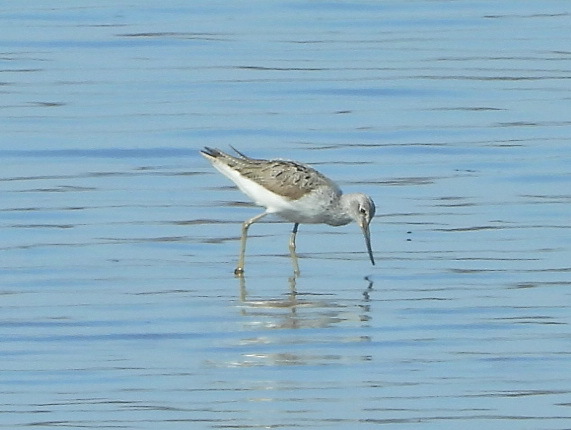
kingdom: Animalia
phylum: Chordata
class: Aves
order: Charadriiformes
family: Scolopacidae
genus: Tringa
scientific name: Tringa nebularia
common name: Common greenshank
